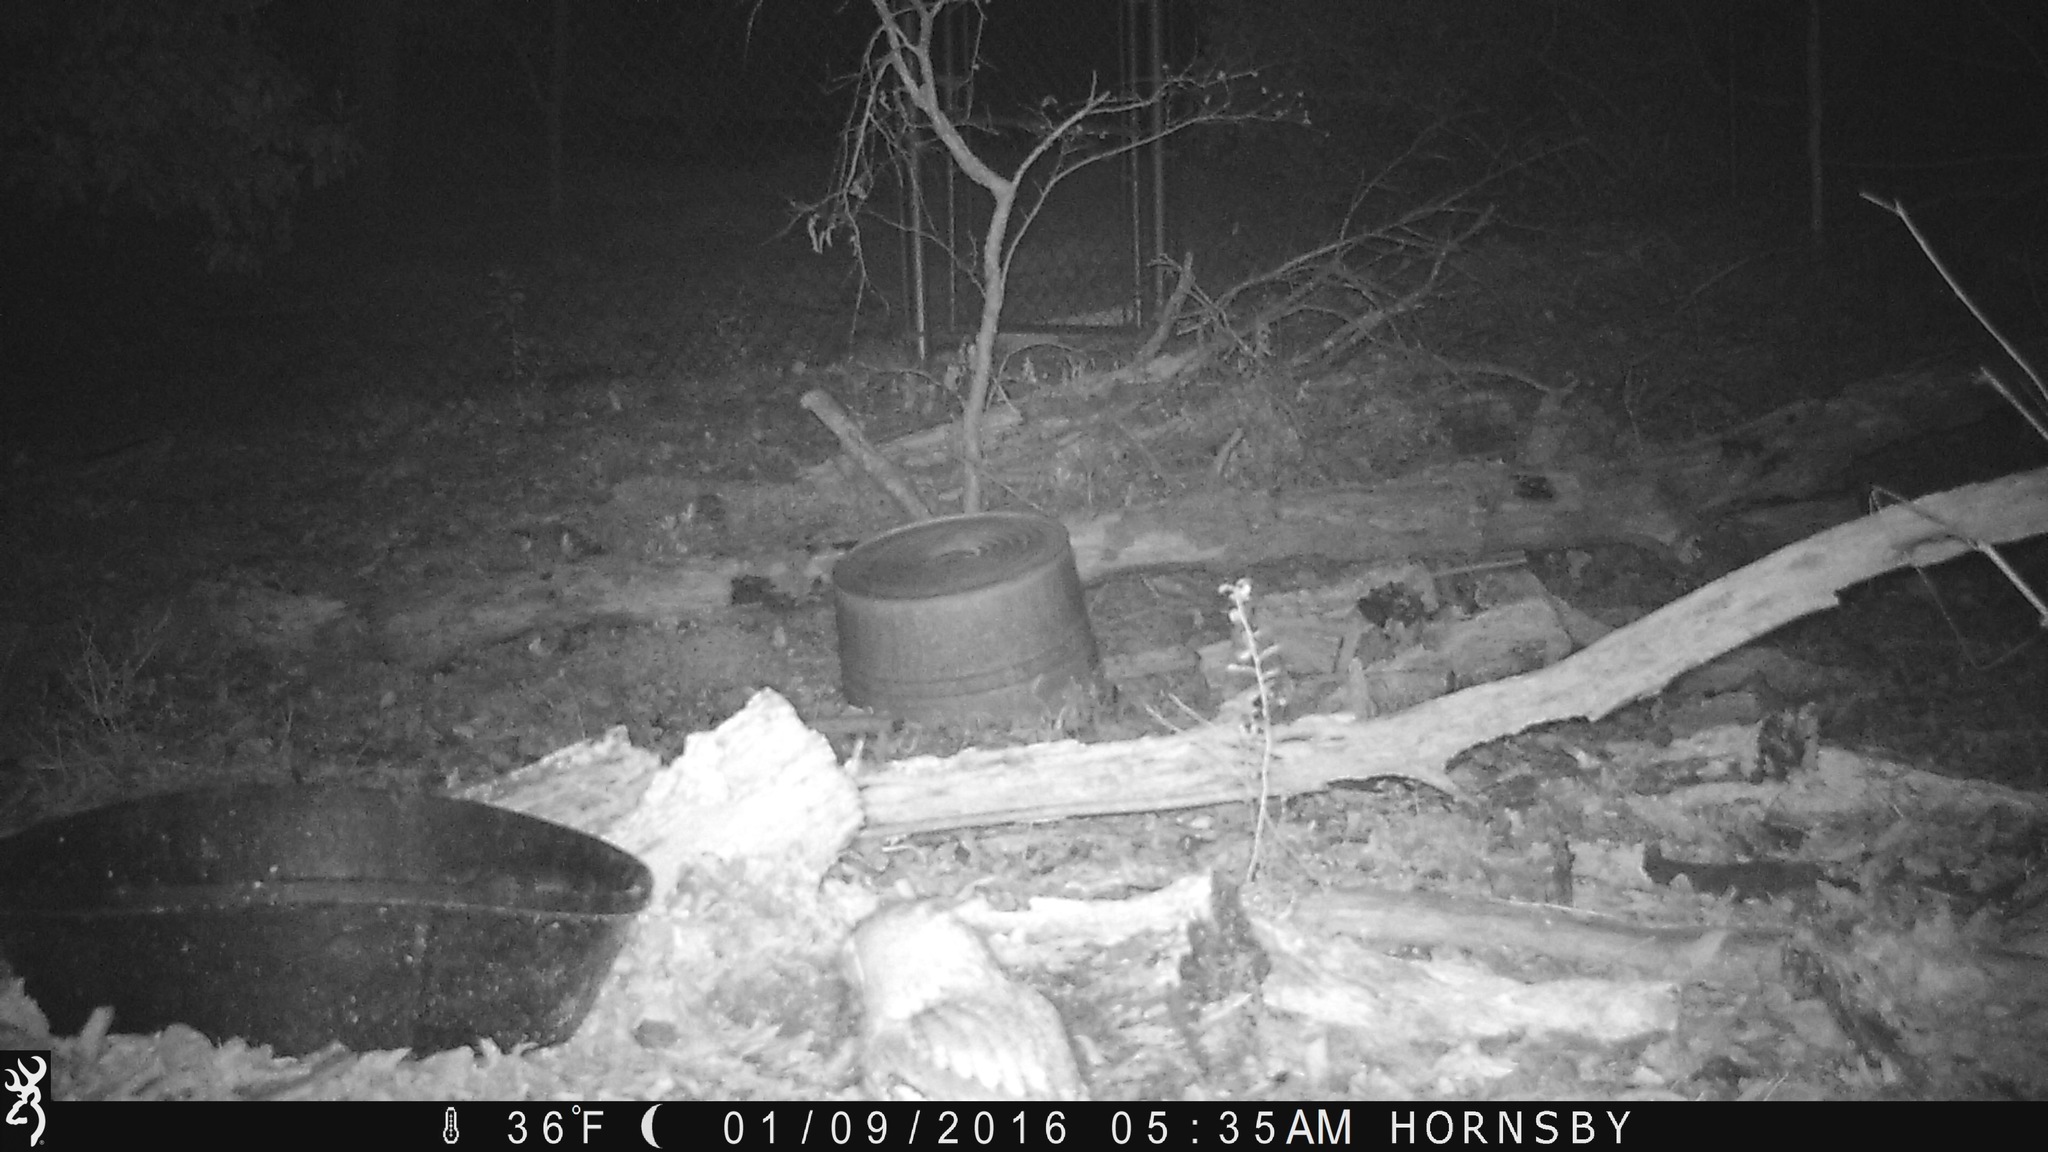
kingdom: Animalia
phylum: Chordata
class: Aves
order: Strigiformes
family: Strigidae
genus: Megascops
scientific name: Megascops asio
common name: Eastern screech-owl
